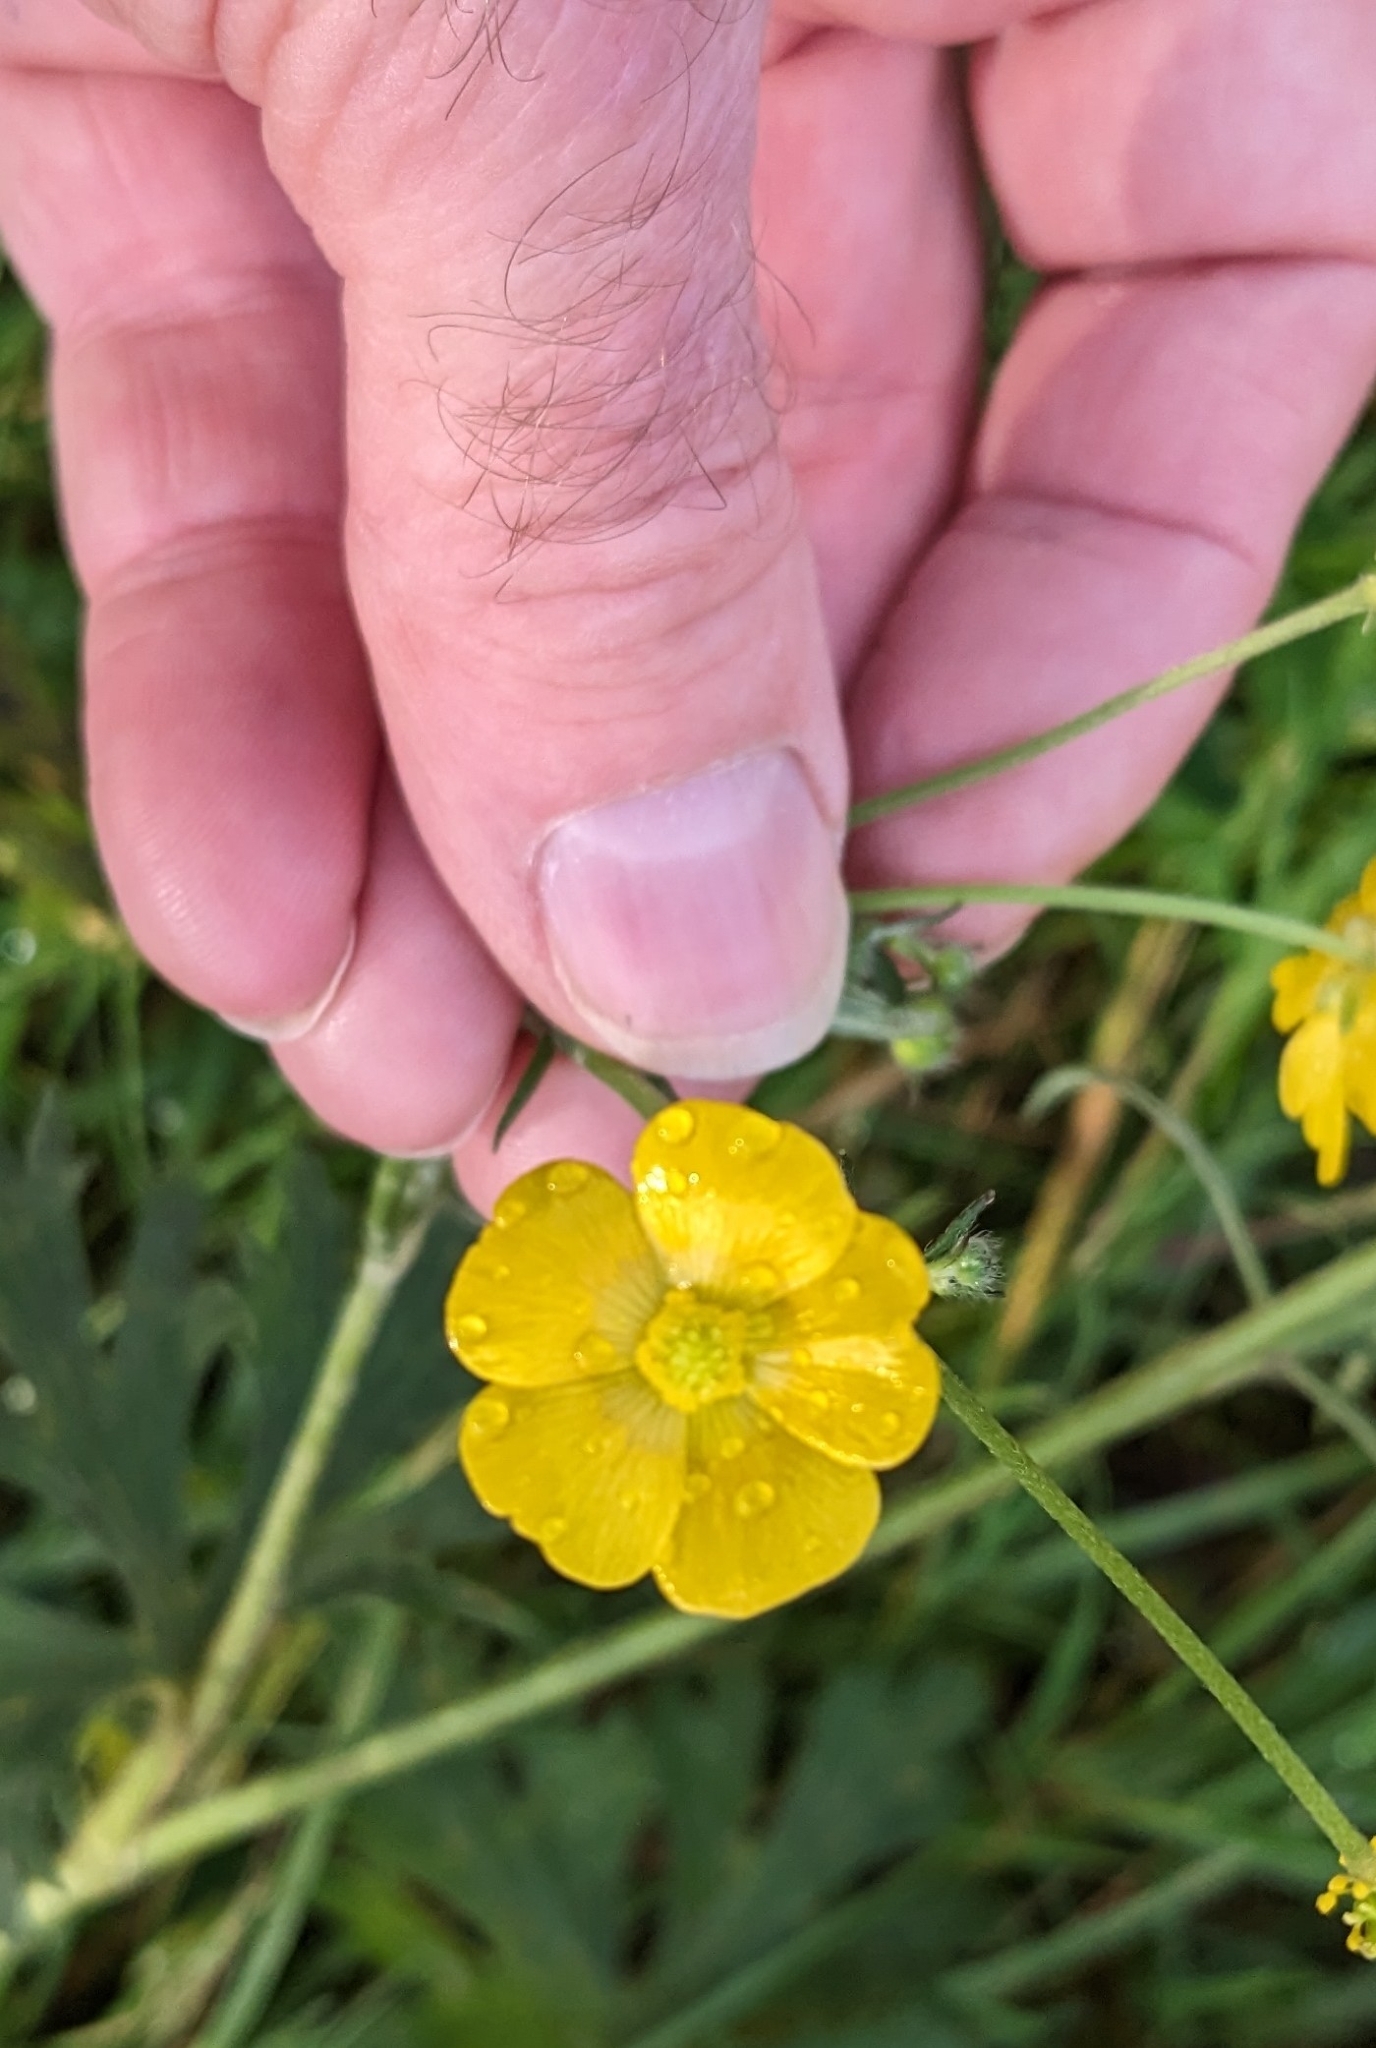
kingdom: Plantae
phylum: Tracheophyta
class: Magnoliopsida
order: Ranunculales
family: Ranunculaceae
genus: Ranunculus
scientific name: Ranunculus acris
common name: Meadow buttercup
